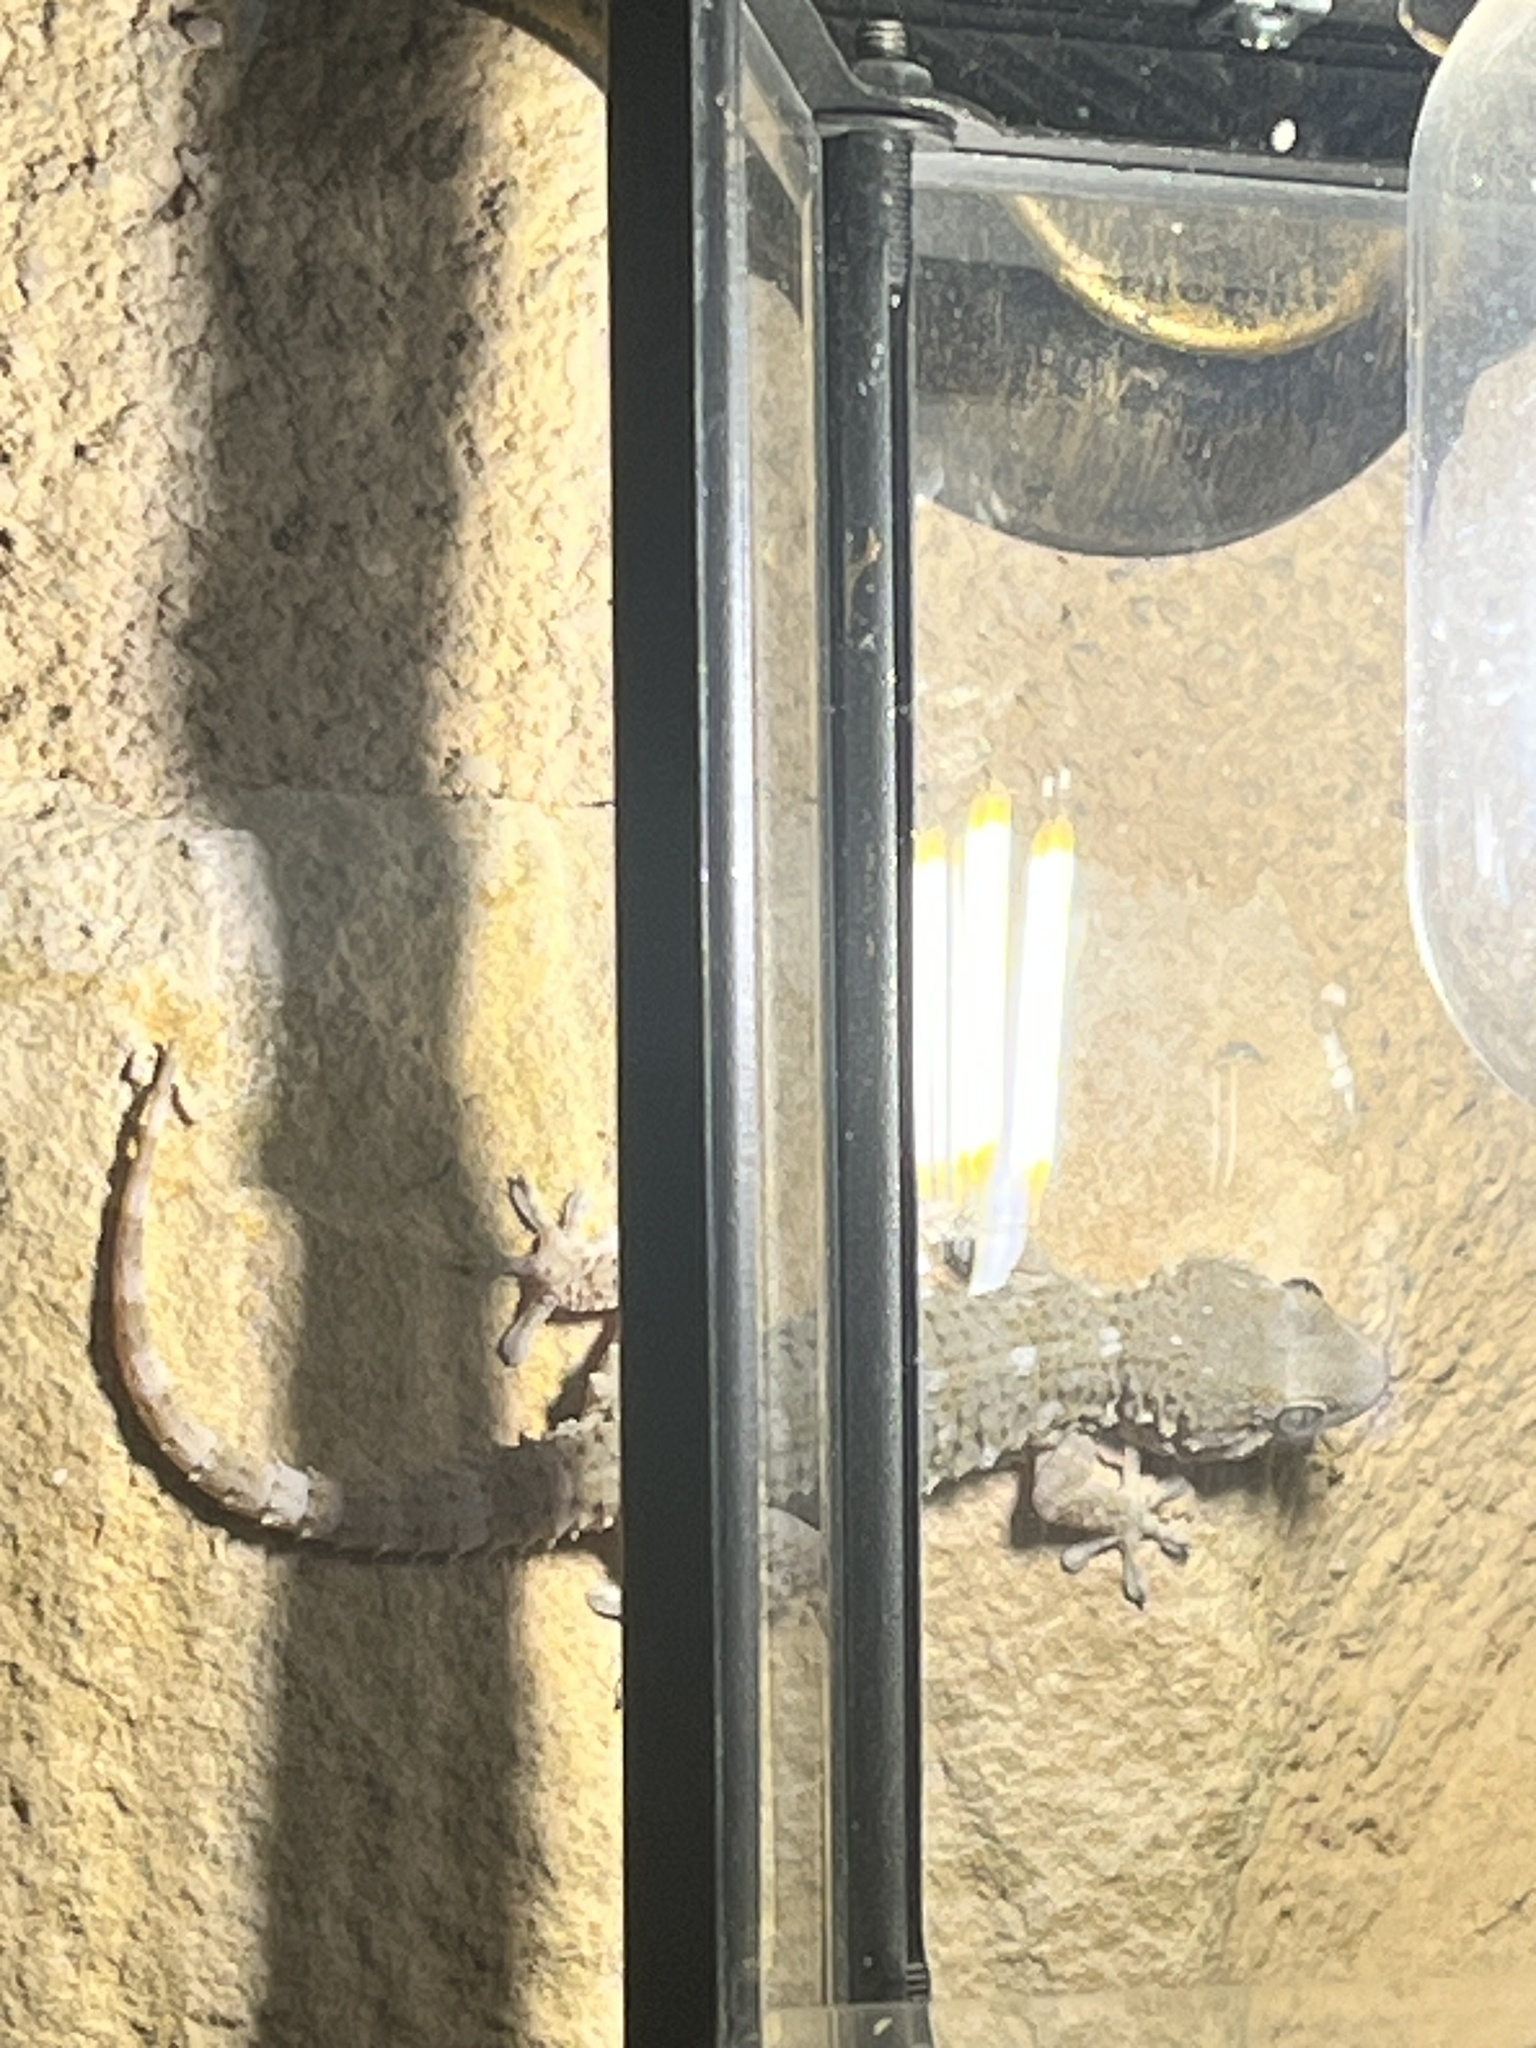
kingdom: Animalia
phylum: Chordata
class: Squamata
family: Phyllodactylidae
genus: Tarentola
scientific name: Tarentola mauritanica
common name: Moorish gecko
